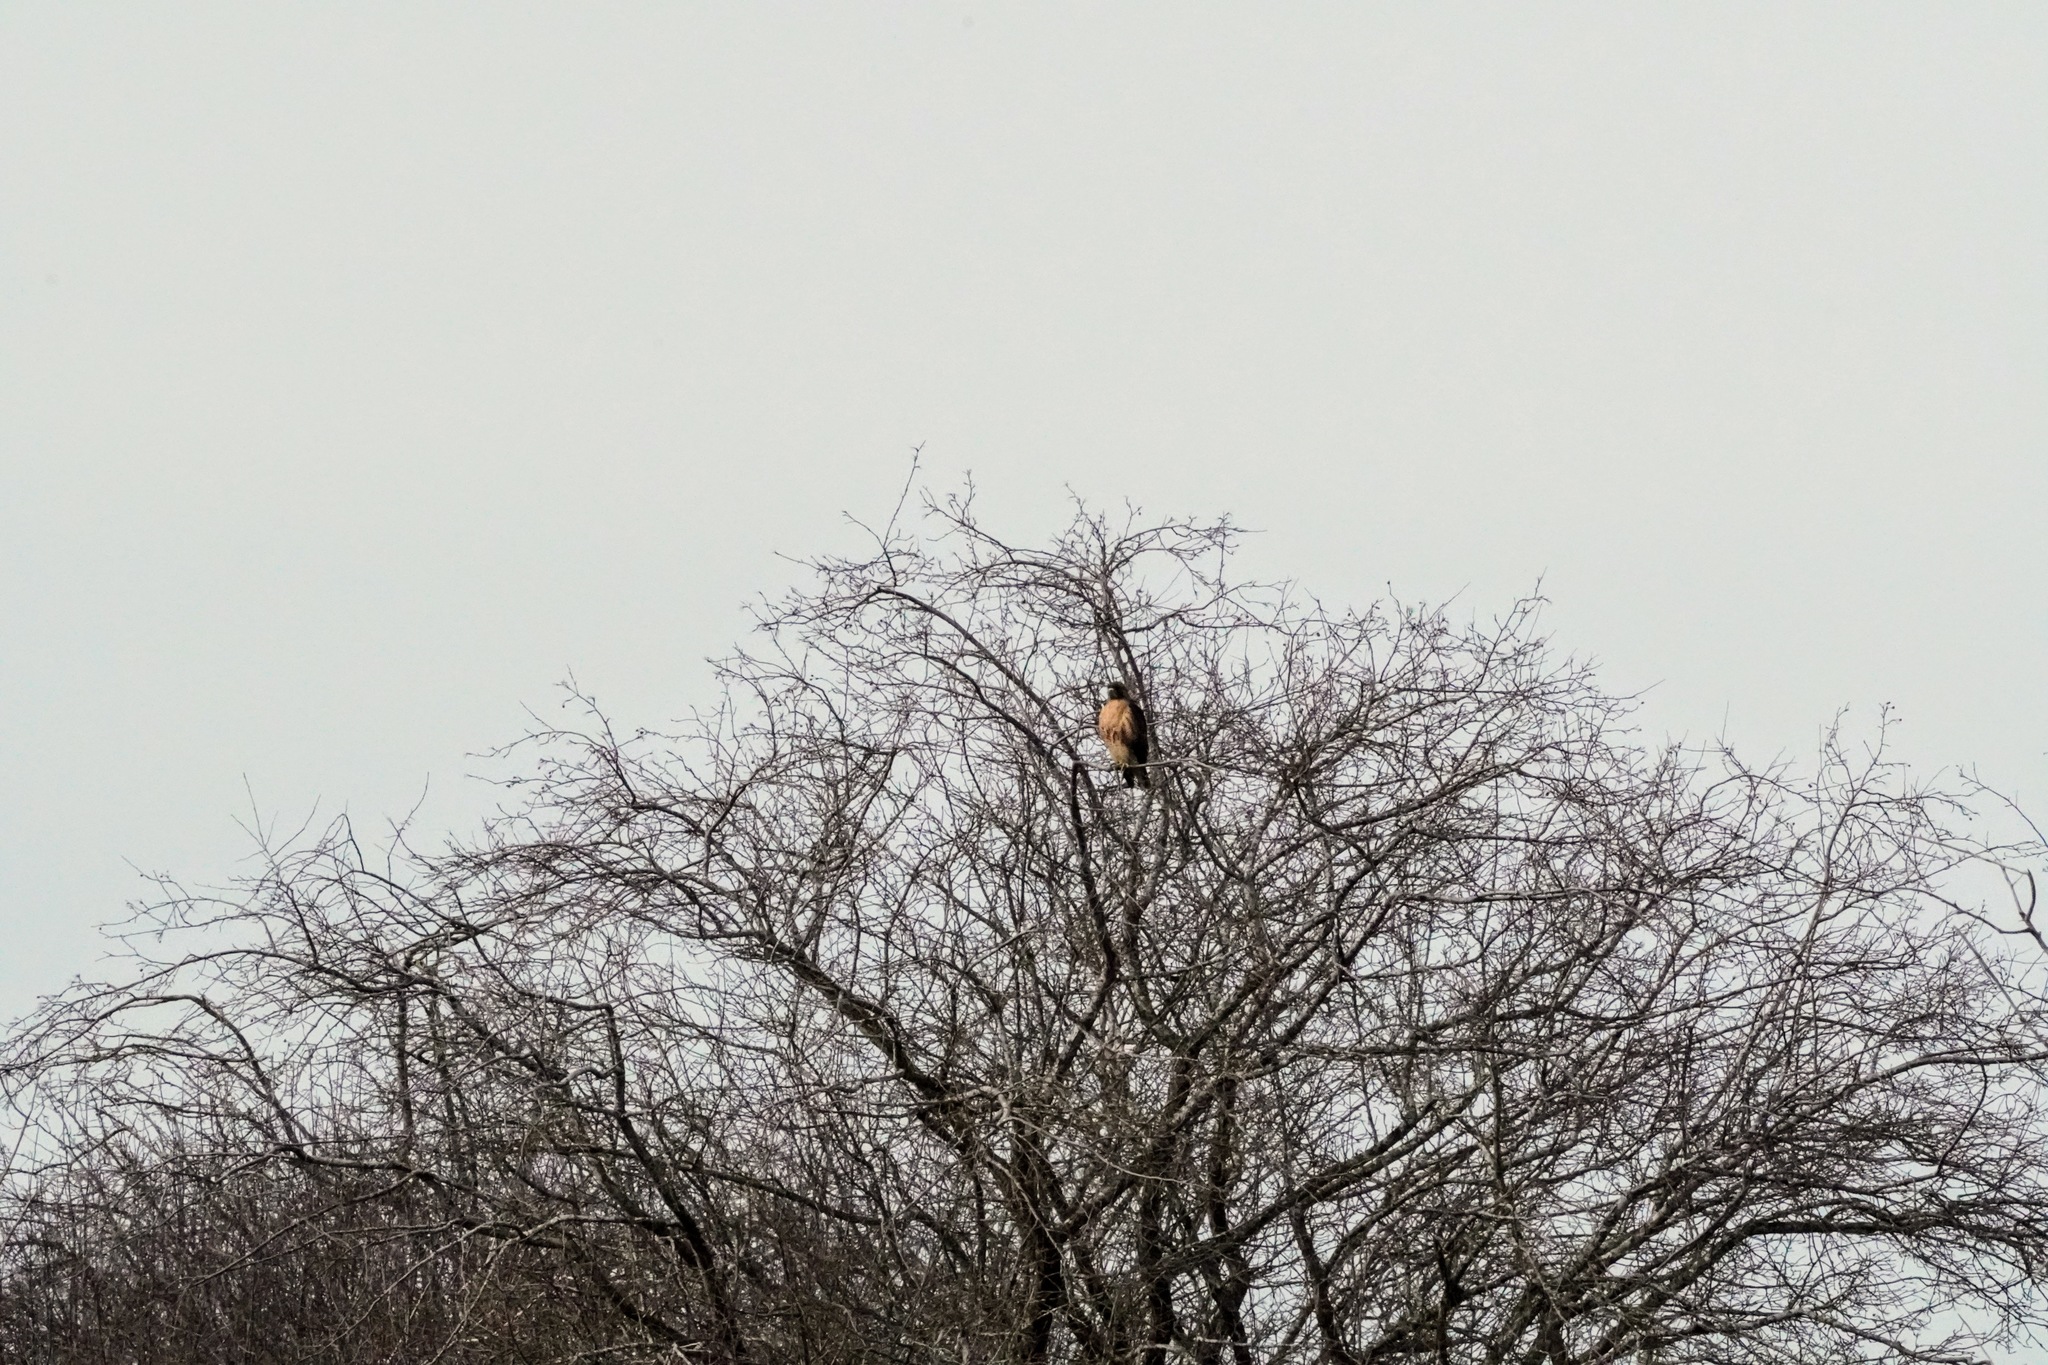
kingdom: Animalia
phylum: Chordata
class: Aves
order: Accipitriformes
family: Accipitridae
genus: Buteo
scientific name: Buteo jamaicensis
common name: Red-tailed hawk
